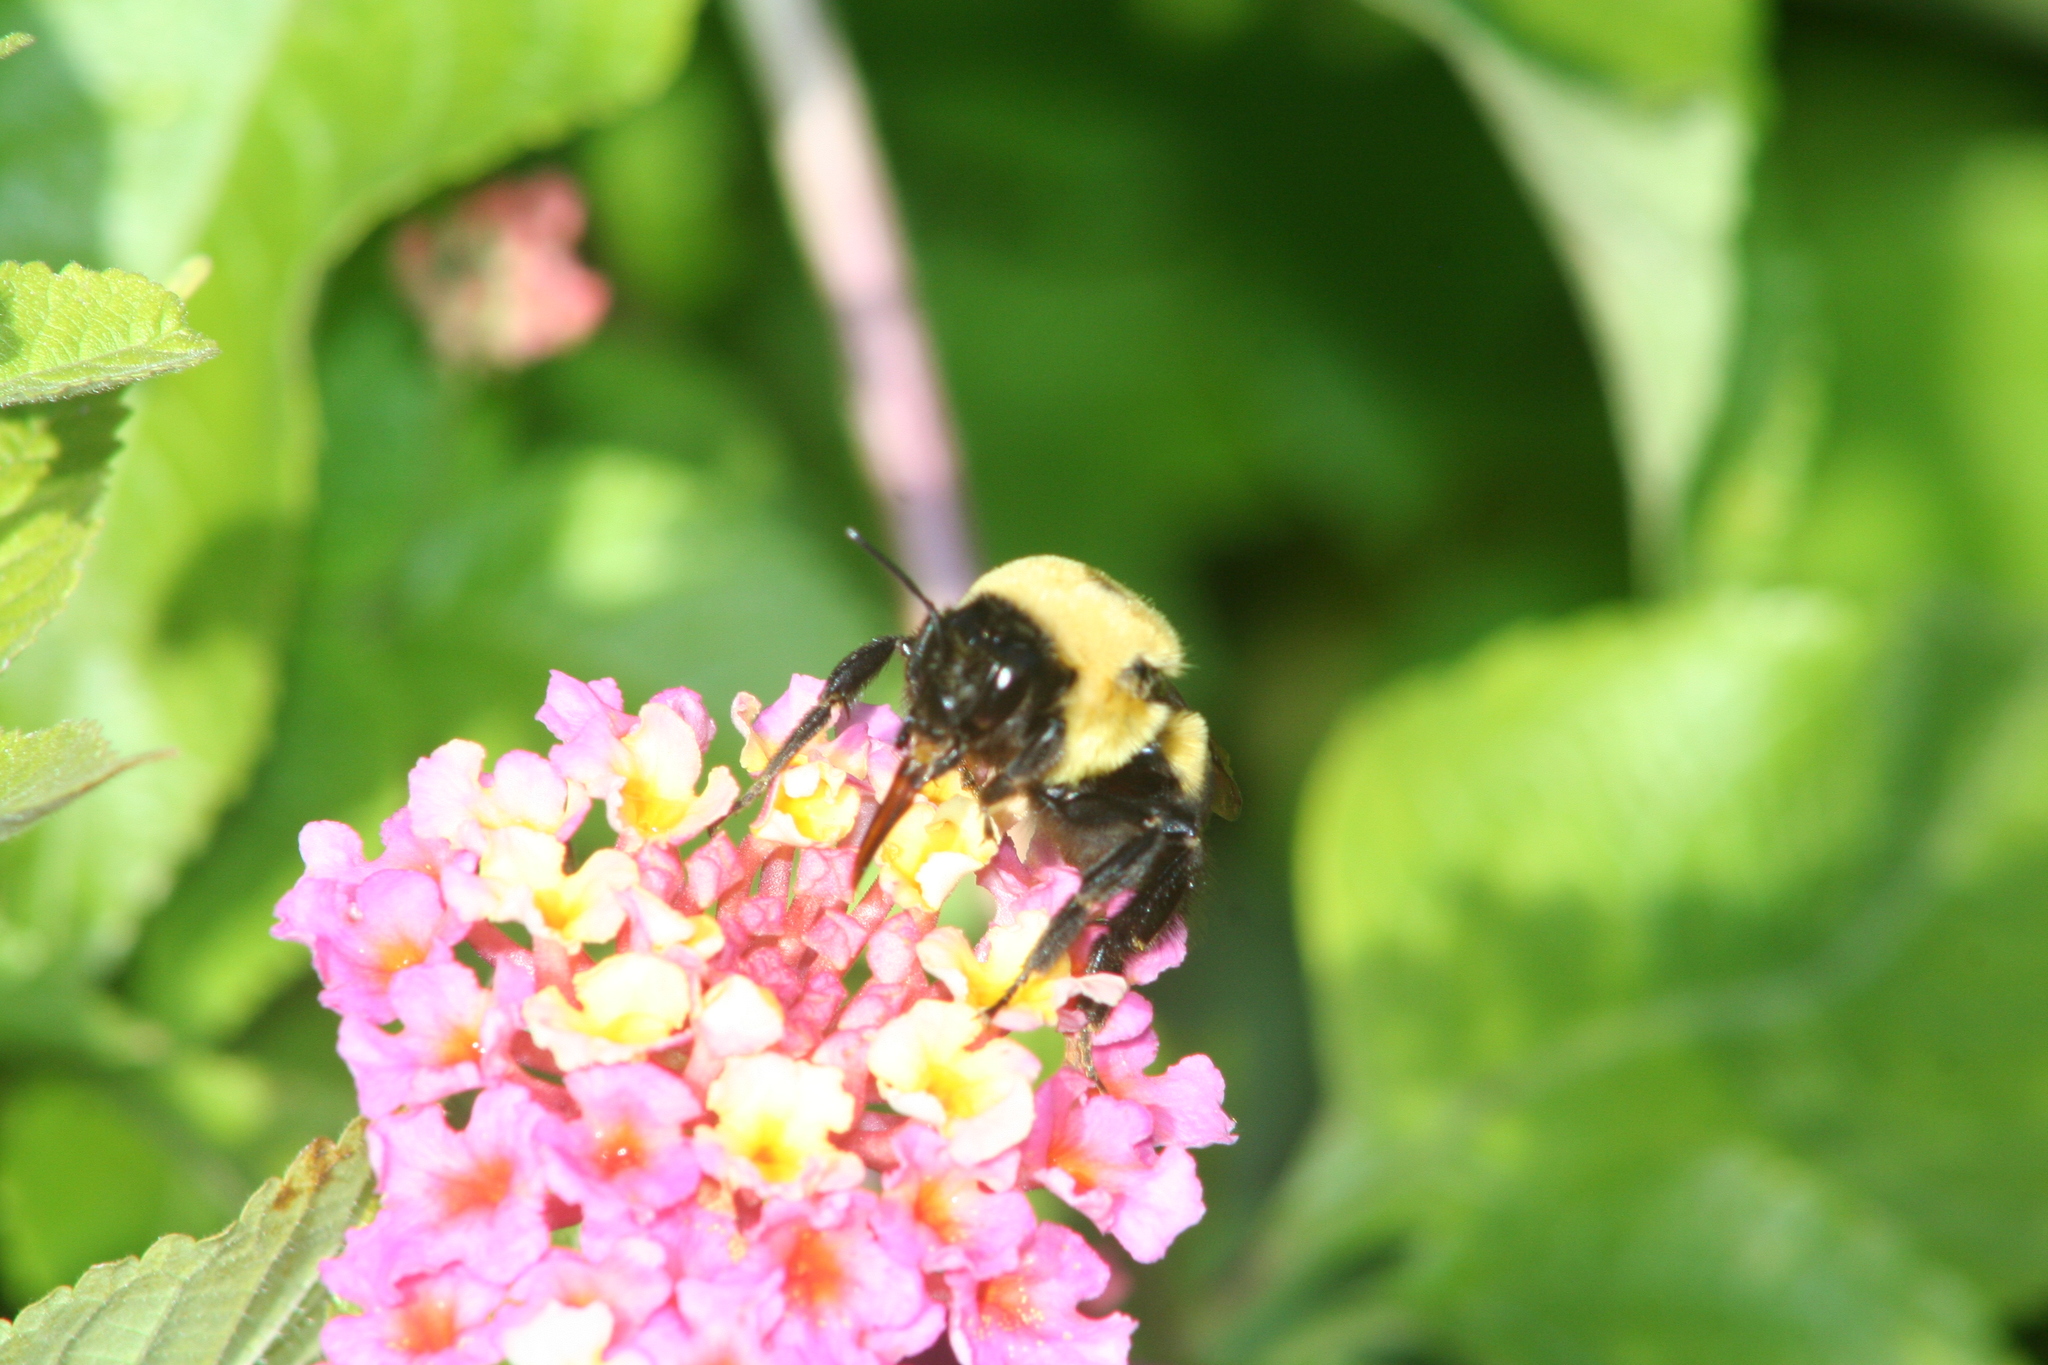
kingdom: Plantae
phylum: Tracheophyta
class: Magnoliopsida
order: Lamiales
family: Verbenaceae
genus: Lantana
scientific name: Lantana camara
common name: Lantana
